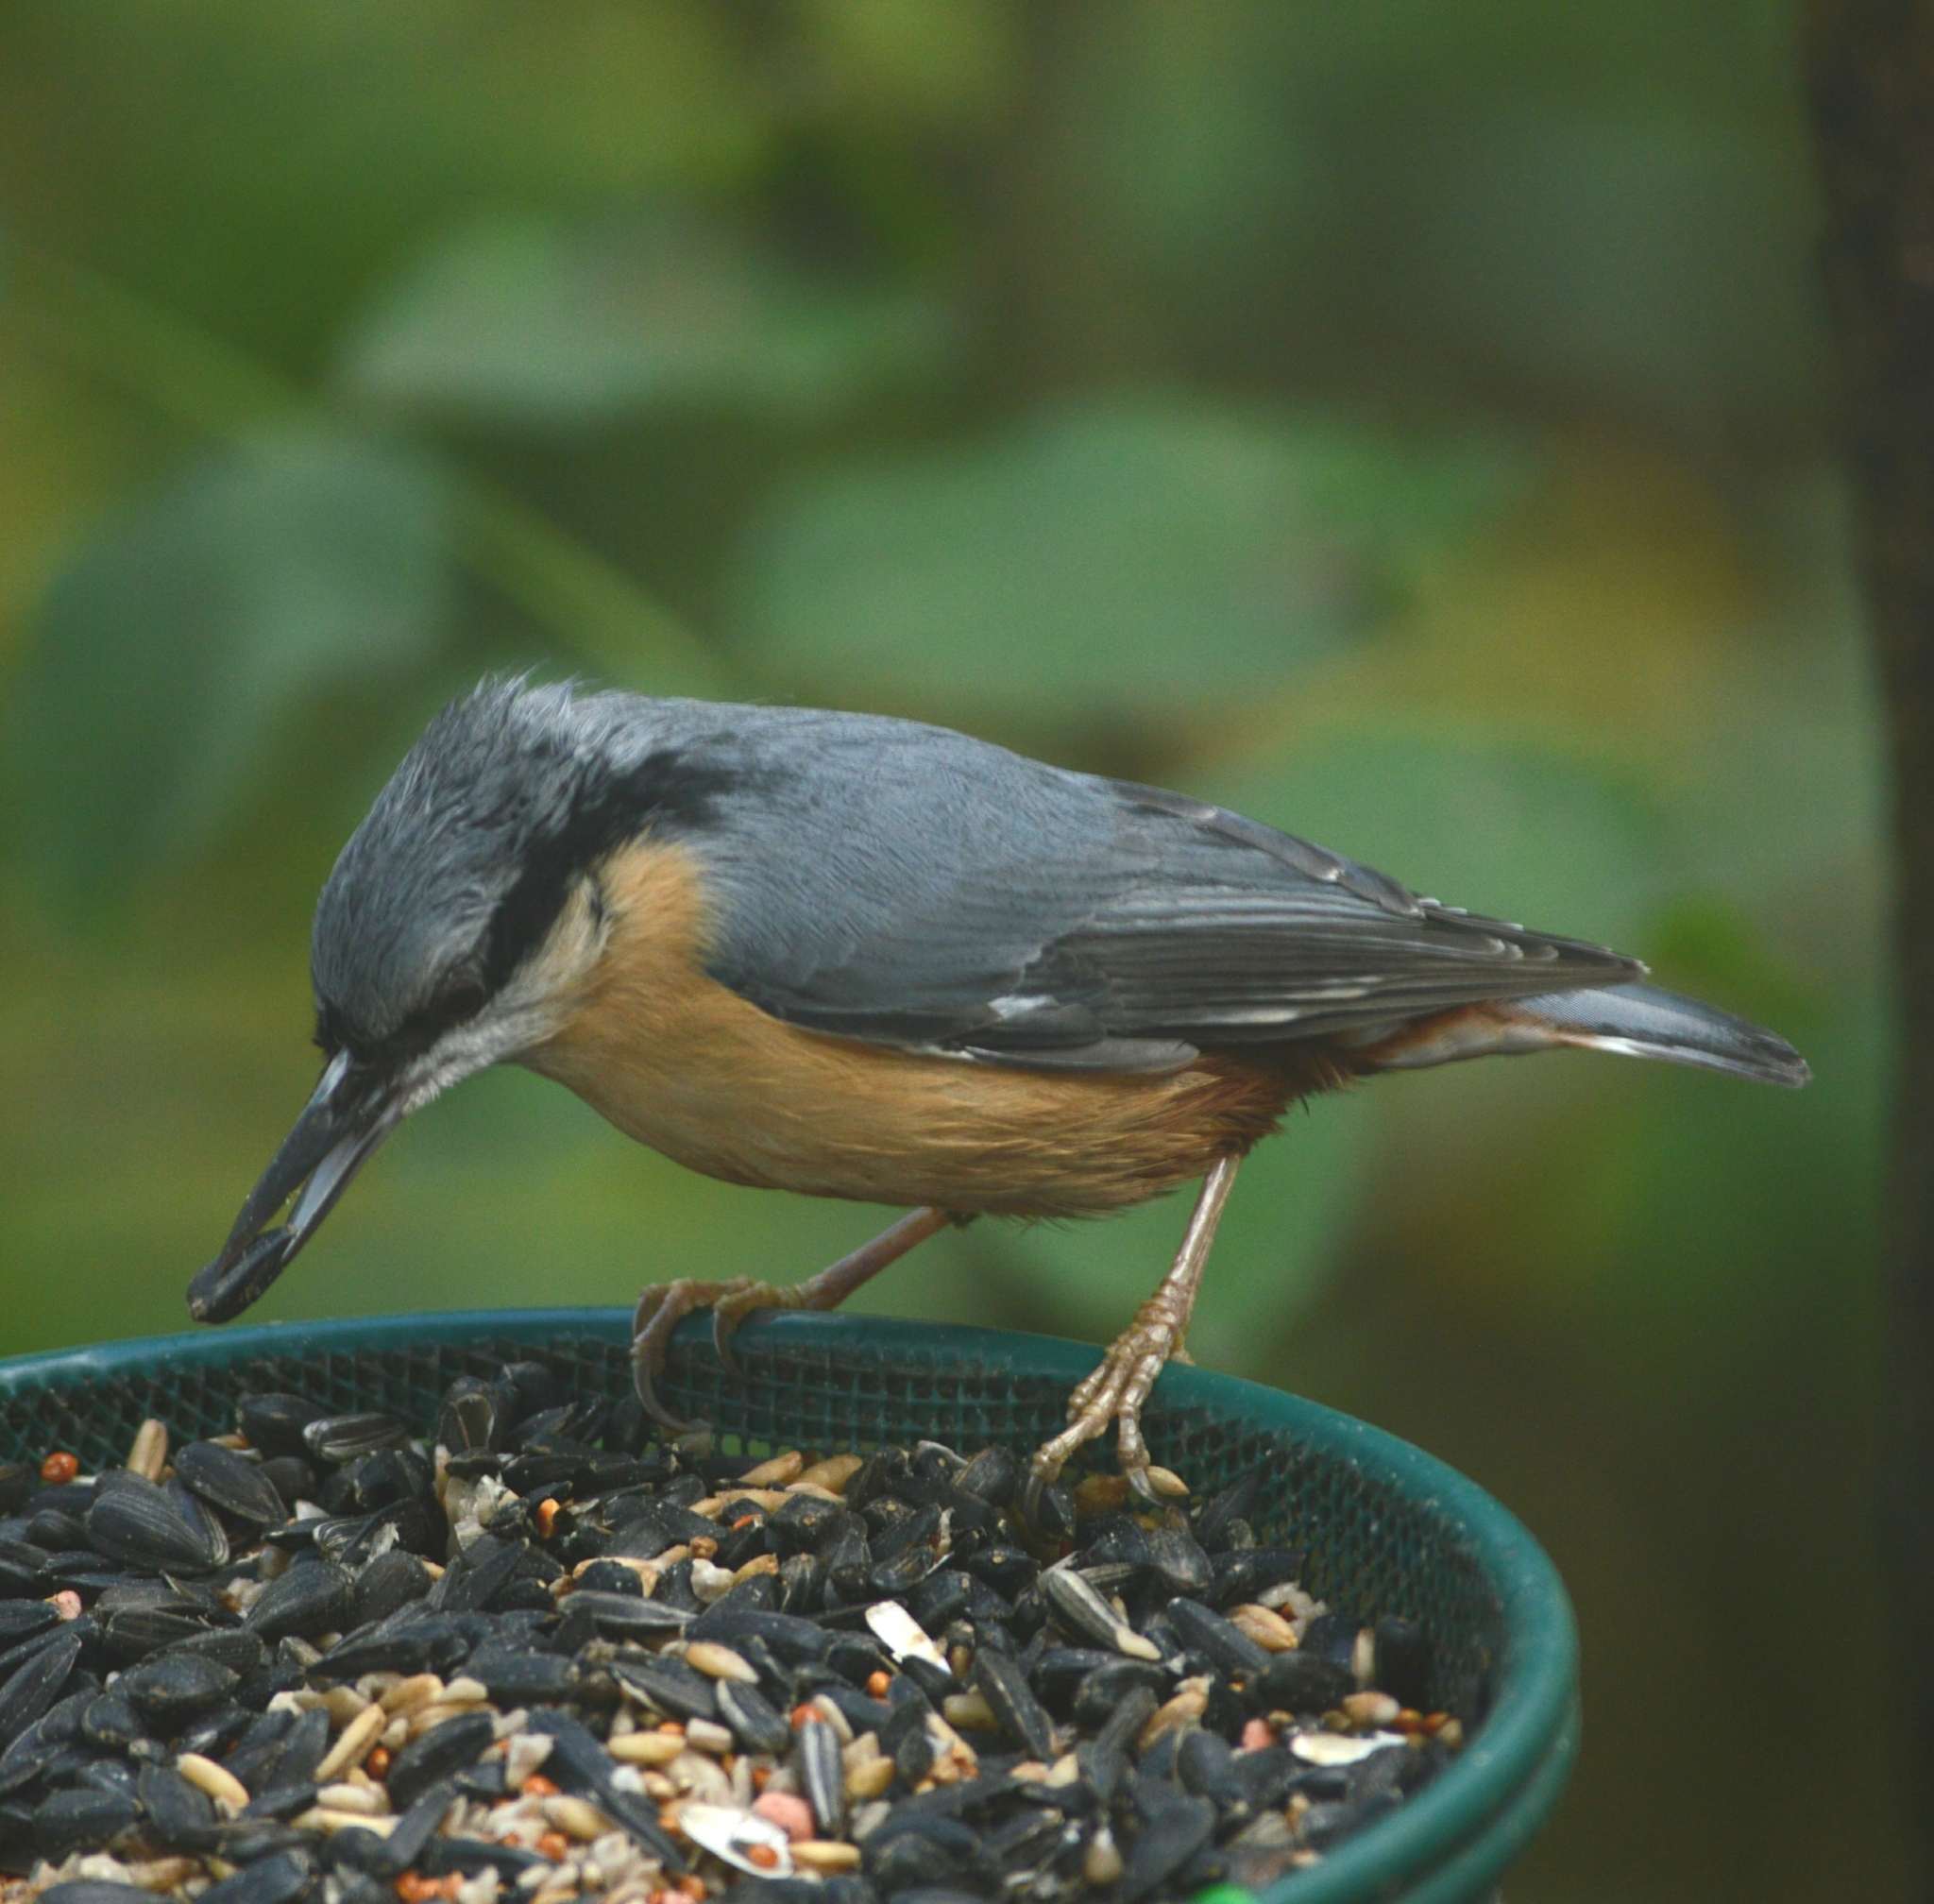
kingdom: Animalia
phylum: Chordata
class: Aves
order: Passeriformes
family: Sittidae
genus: Sitta
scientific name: Sitta europaea
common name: Eurasian nuthatch
